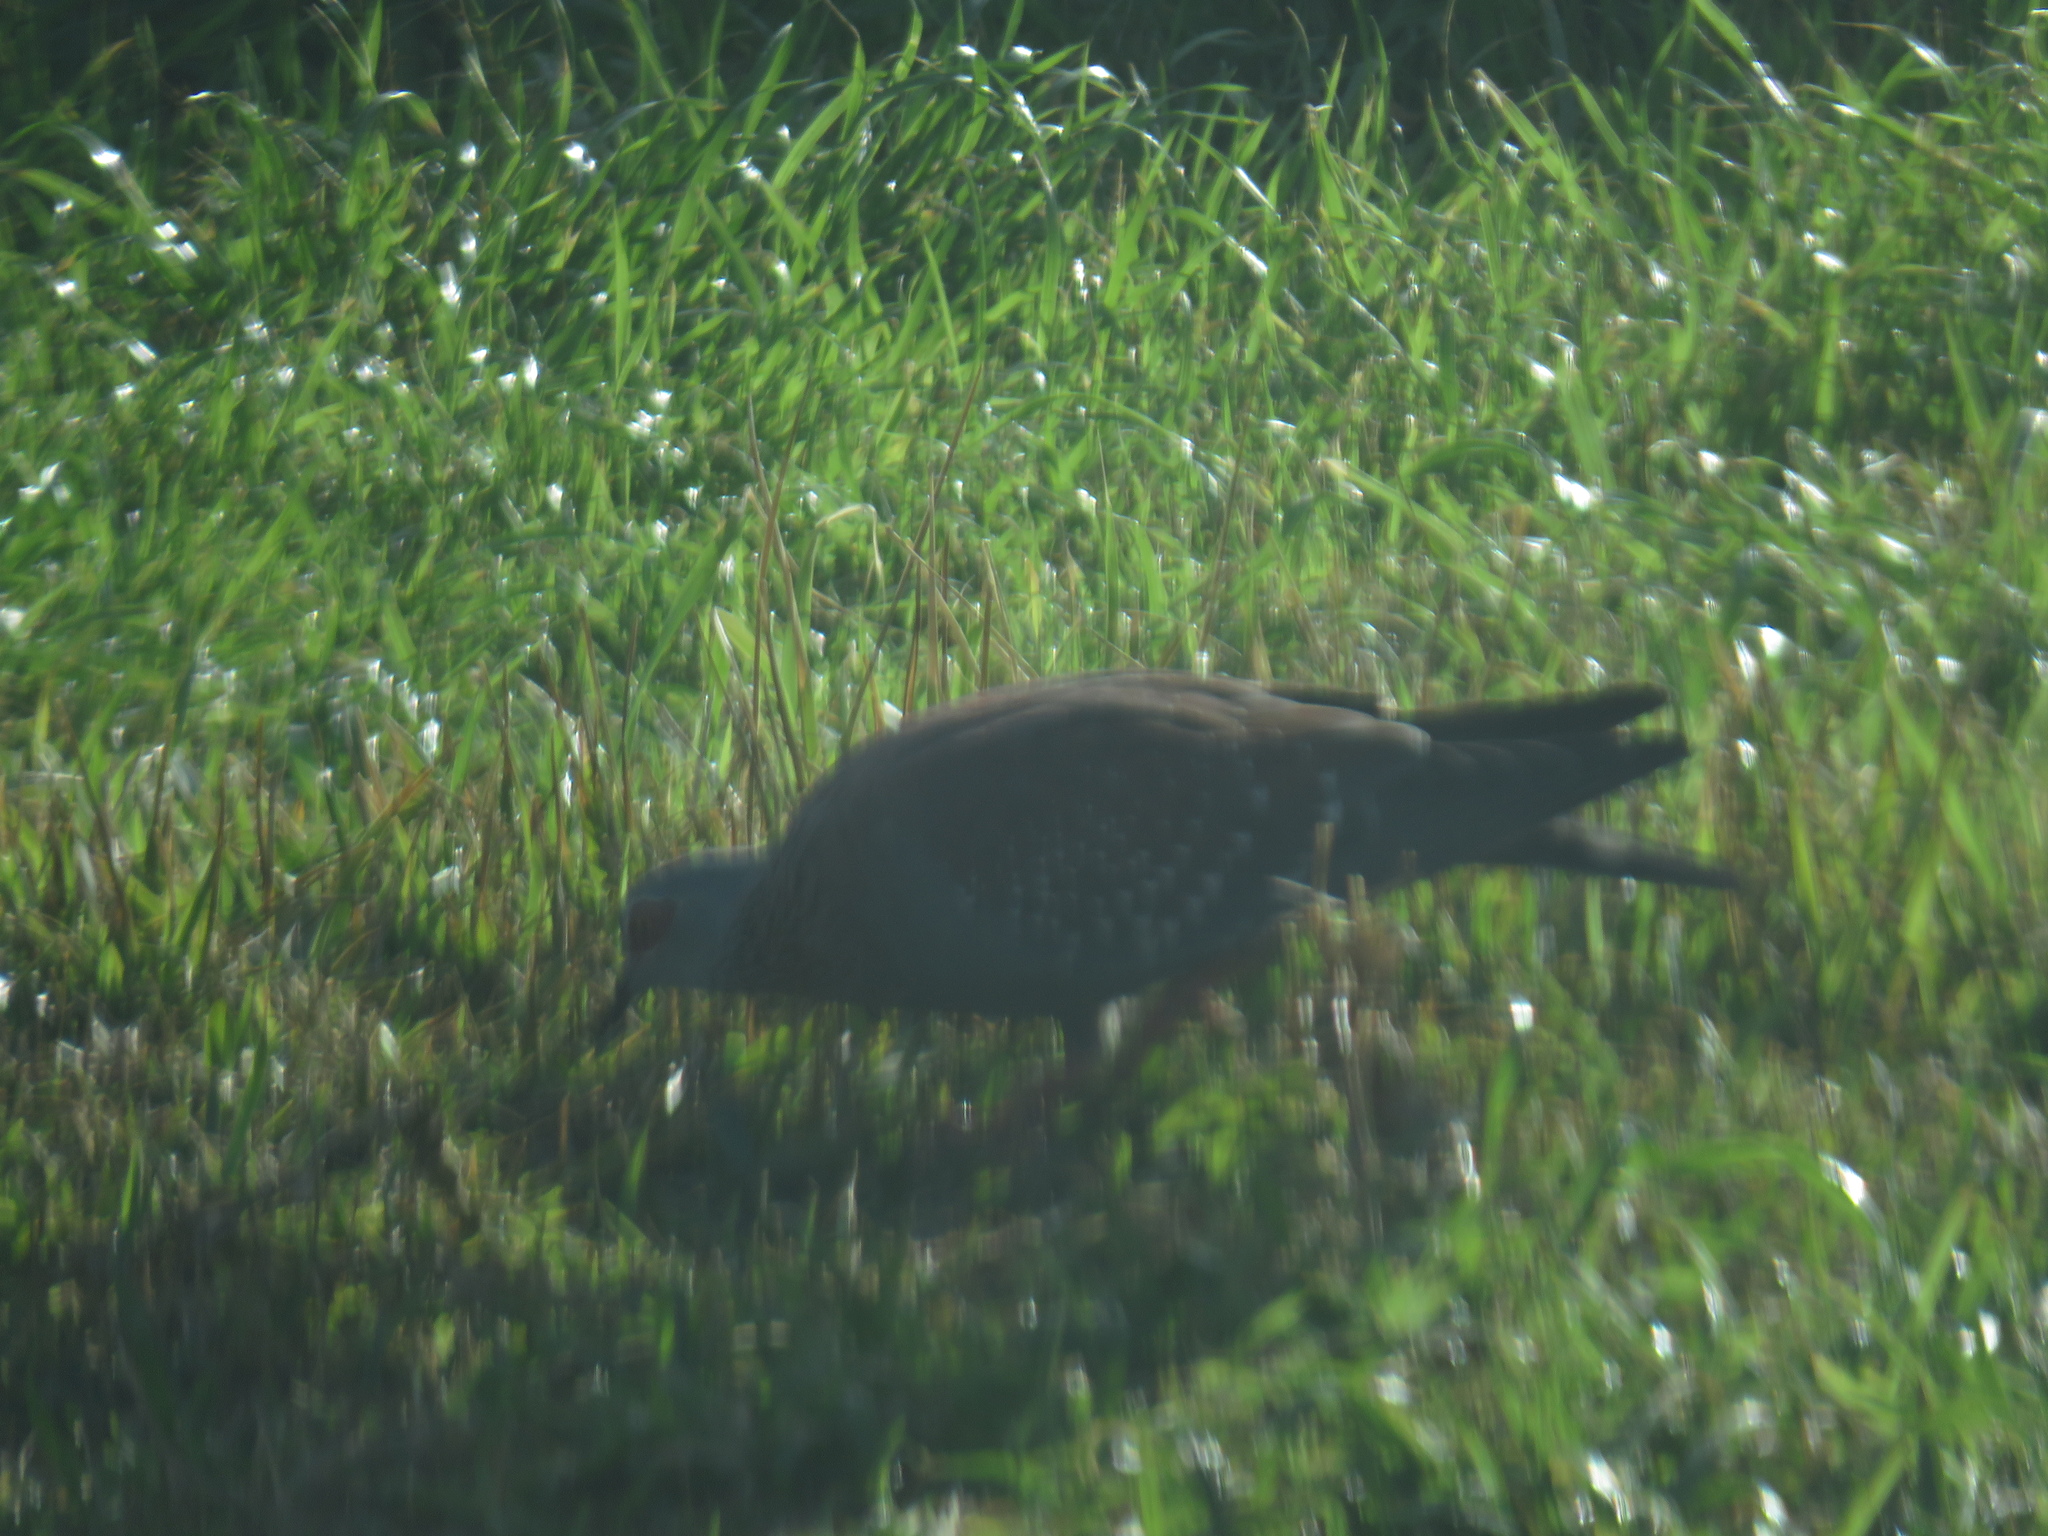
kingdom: Animalia
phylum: Chordata
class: Aves
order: Columbiformes
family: Columbidae
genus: Columba
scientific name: Columba guinea
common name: Speckled pigeon
